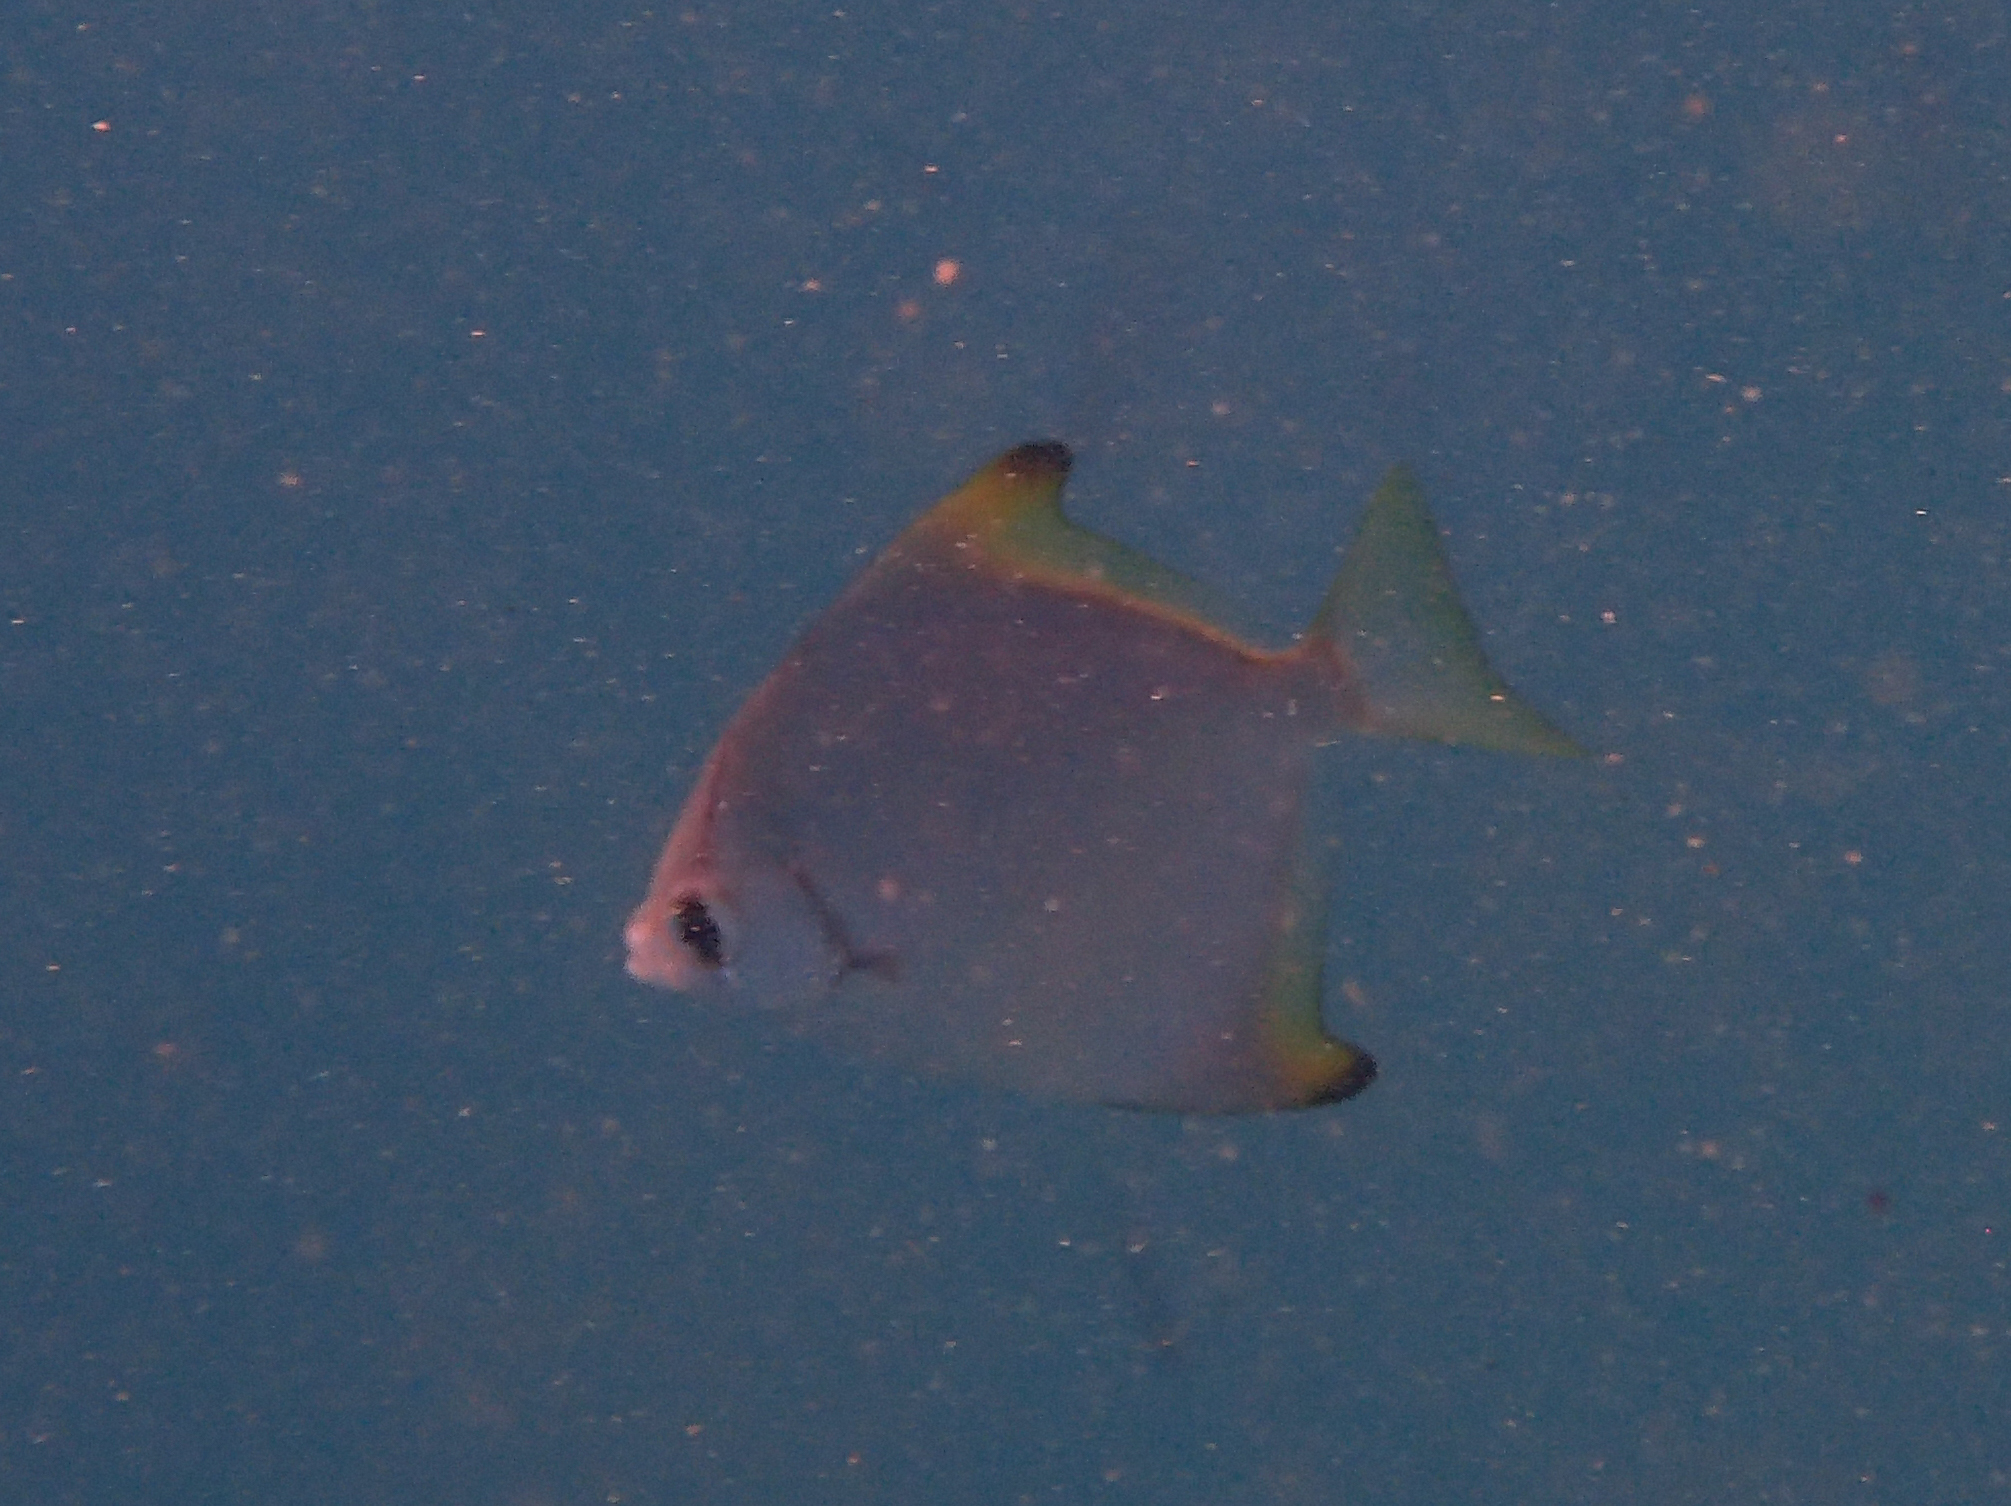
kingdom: Animalia
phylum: Chordata
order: Perciformes
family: Monodactylidae
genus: Monodactylus
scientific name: Monodactylus argenteus
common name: Silver moony
